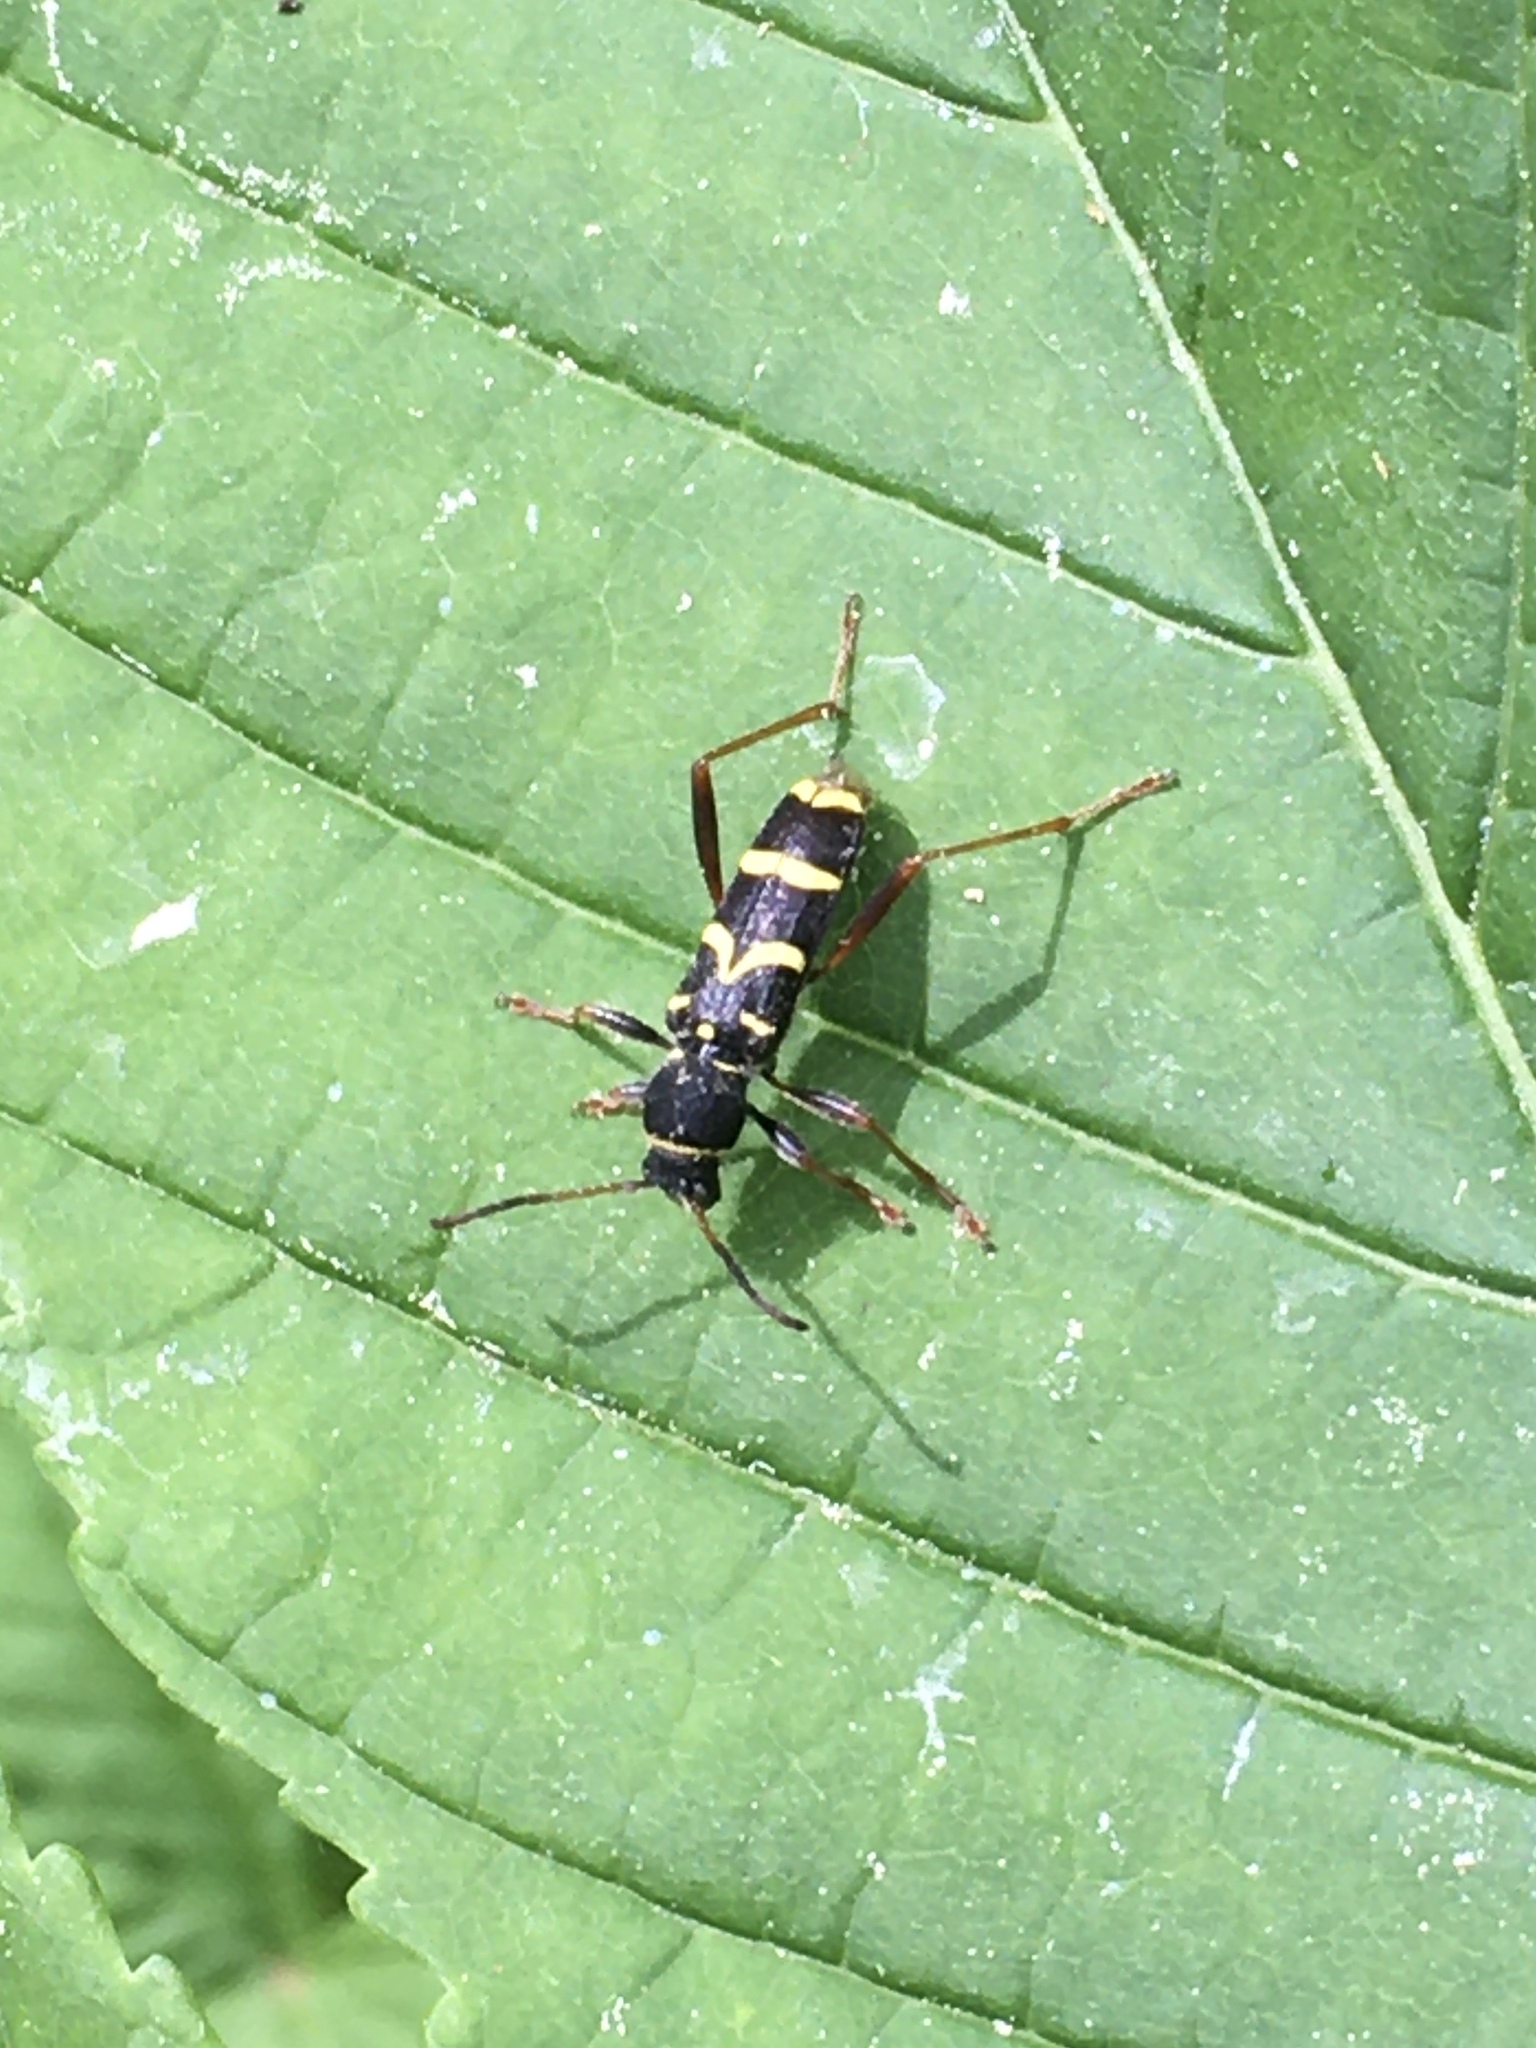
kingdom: Animalia
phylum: Arthropoda
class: Insecta
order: Coleoptera
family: Cerambycidae
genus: Clytus
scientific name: Clytus arietis
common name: Wasp beetle
